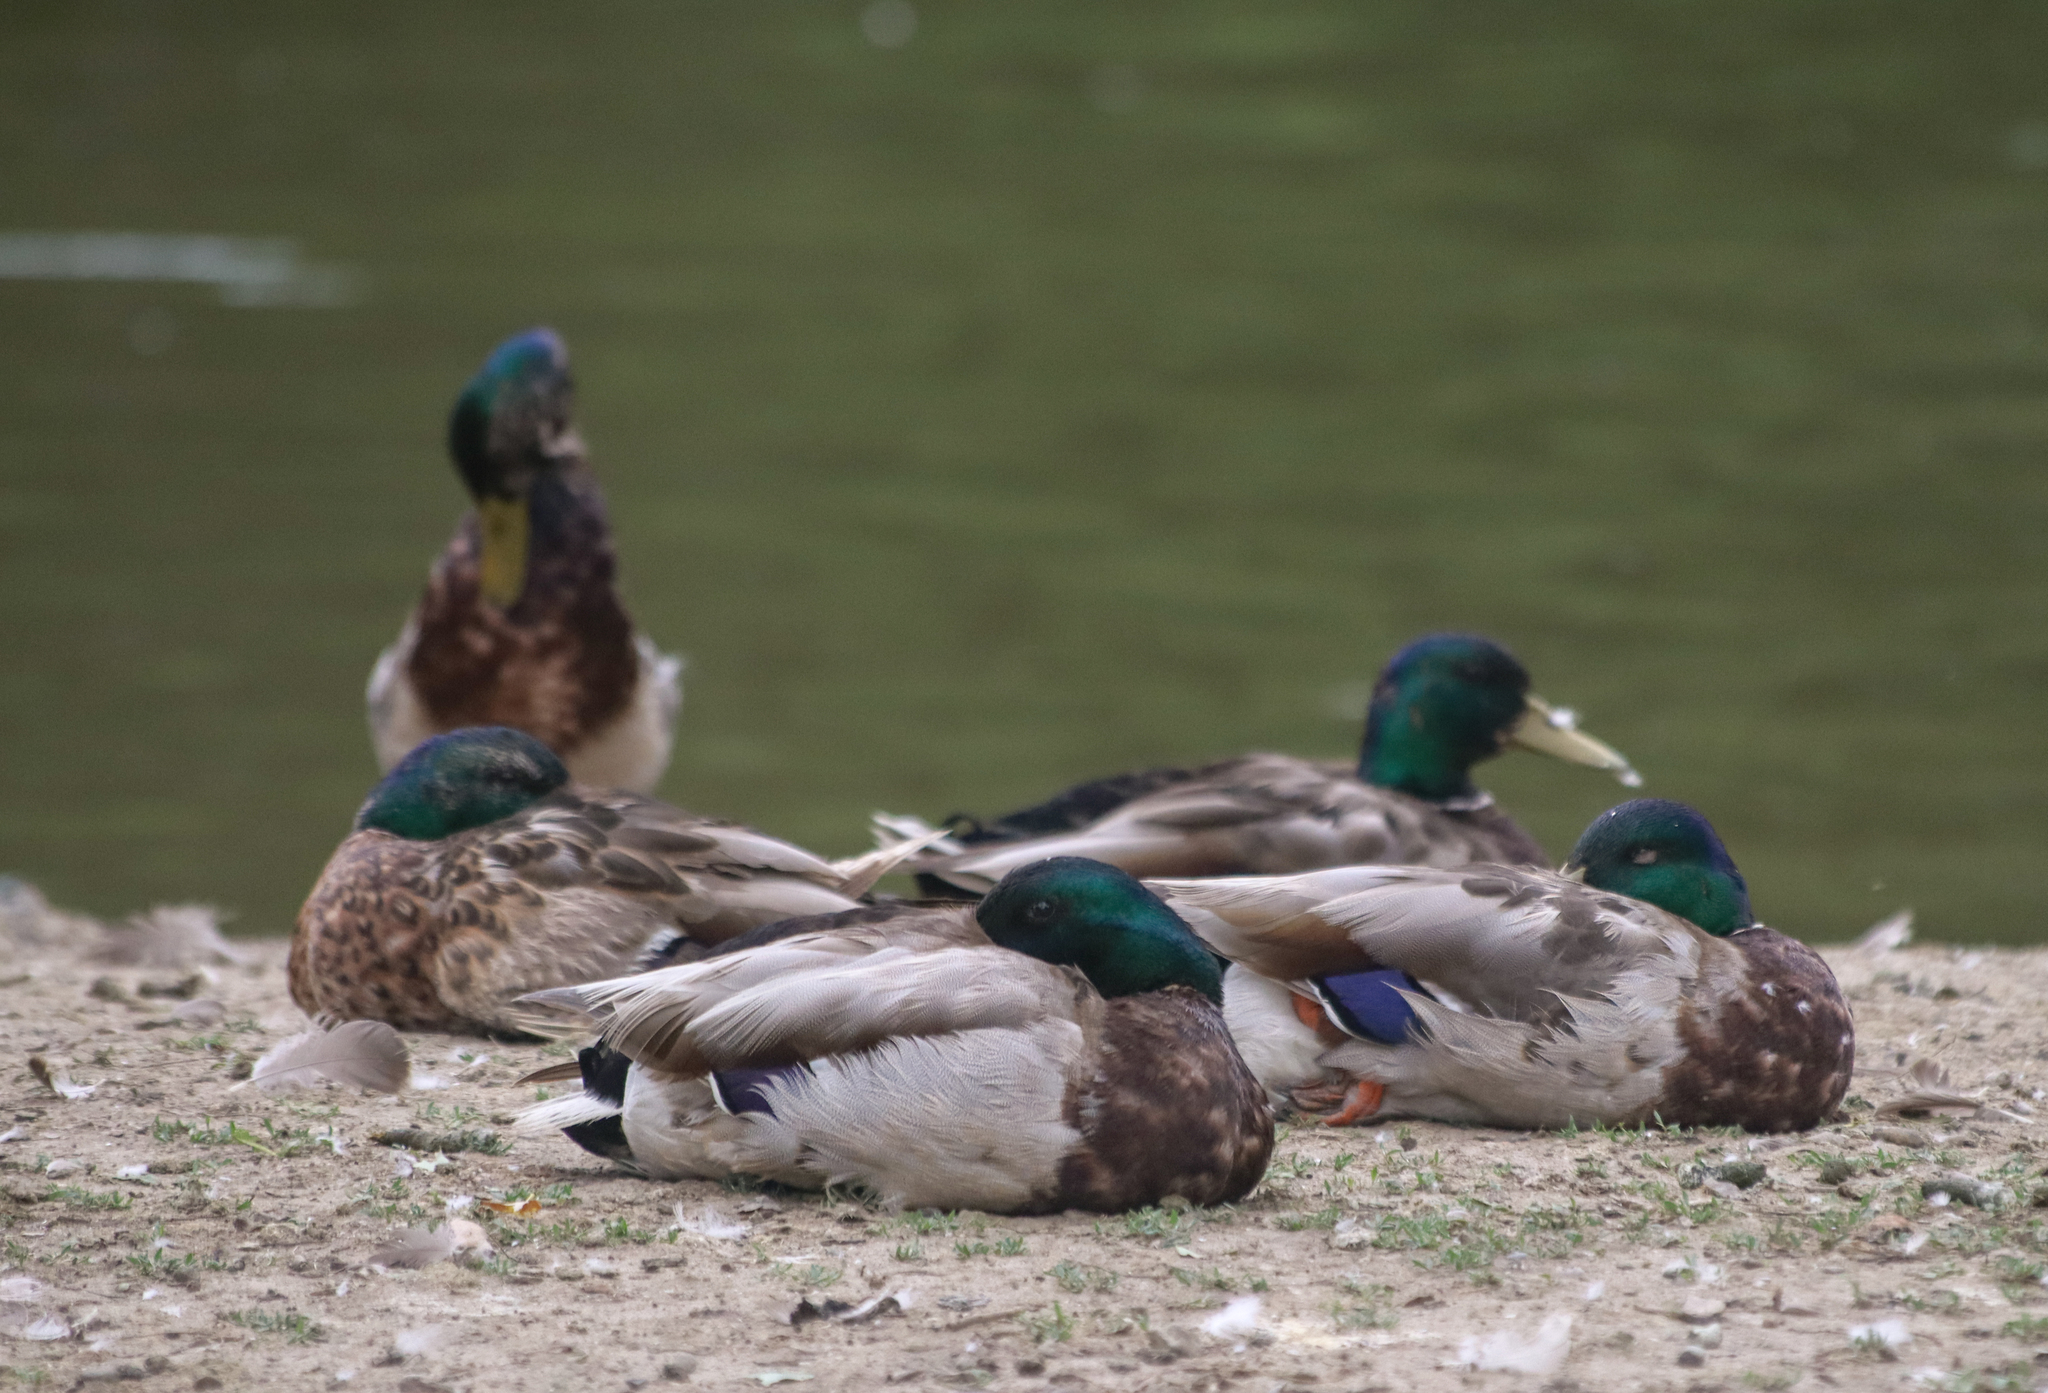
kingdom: Animalia
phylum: Chordata
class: Aves
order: Anseriformes
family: Anatidae
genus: Anas
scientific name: Anas platyrhynchos
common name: Mallard
